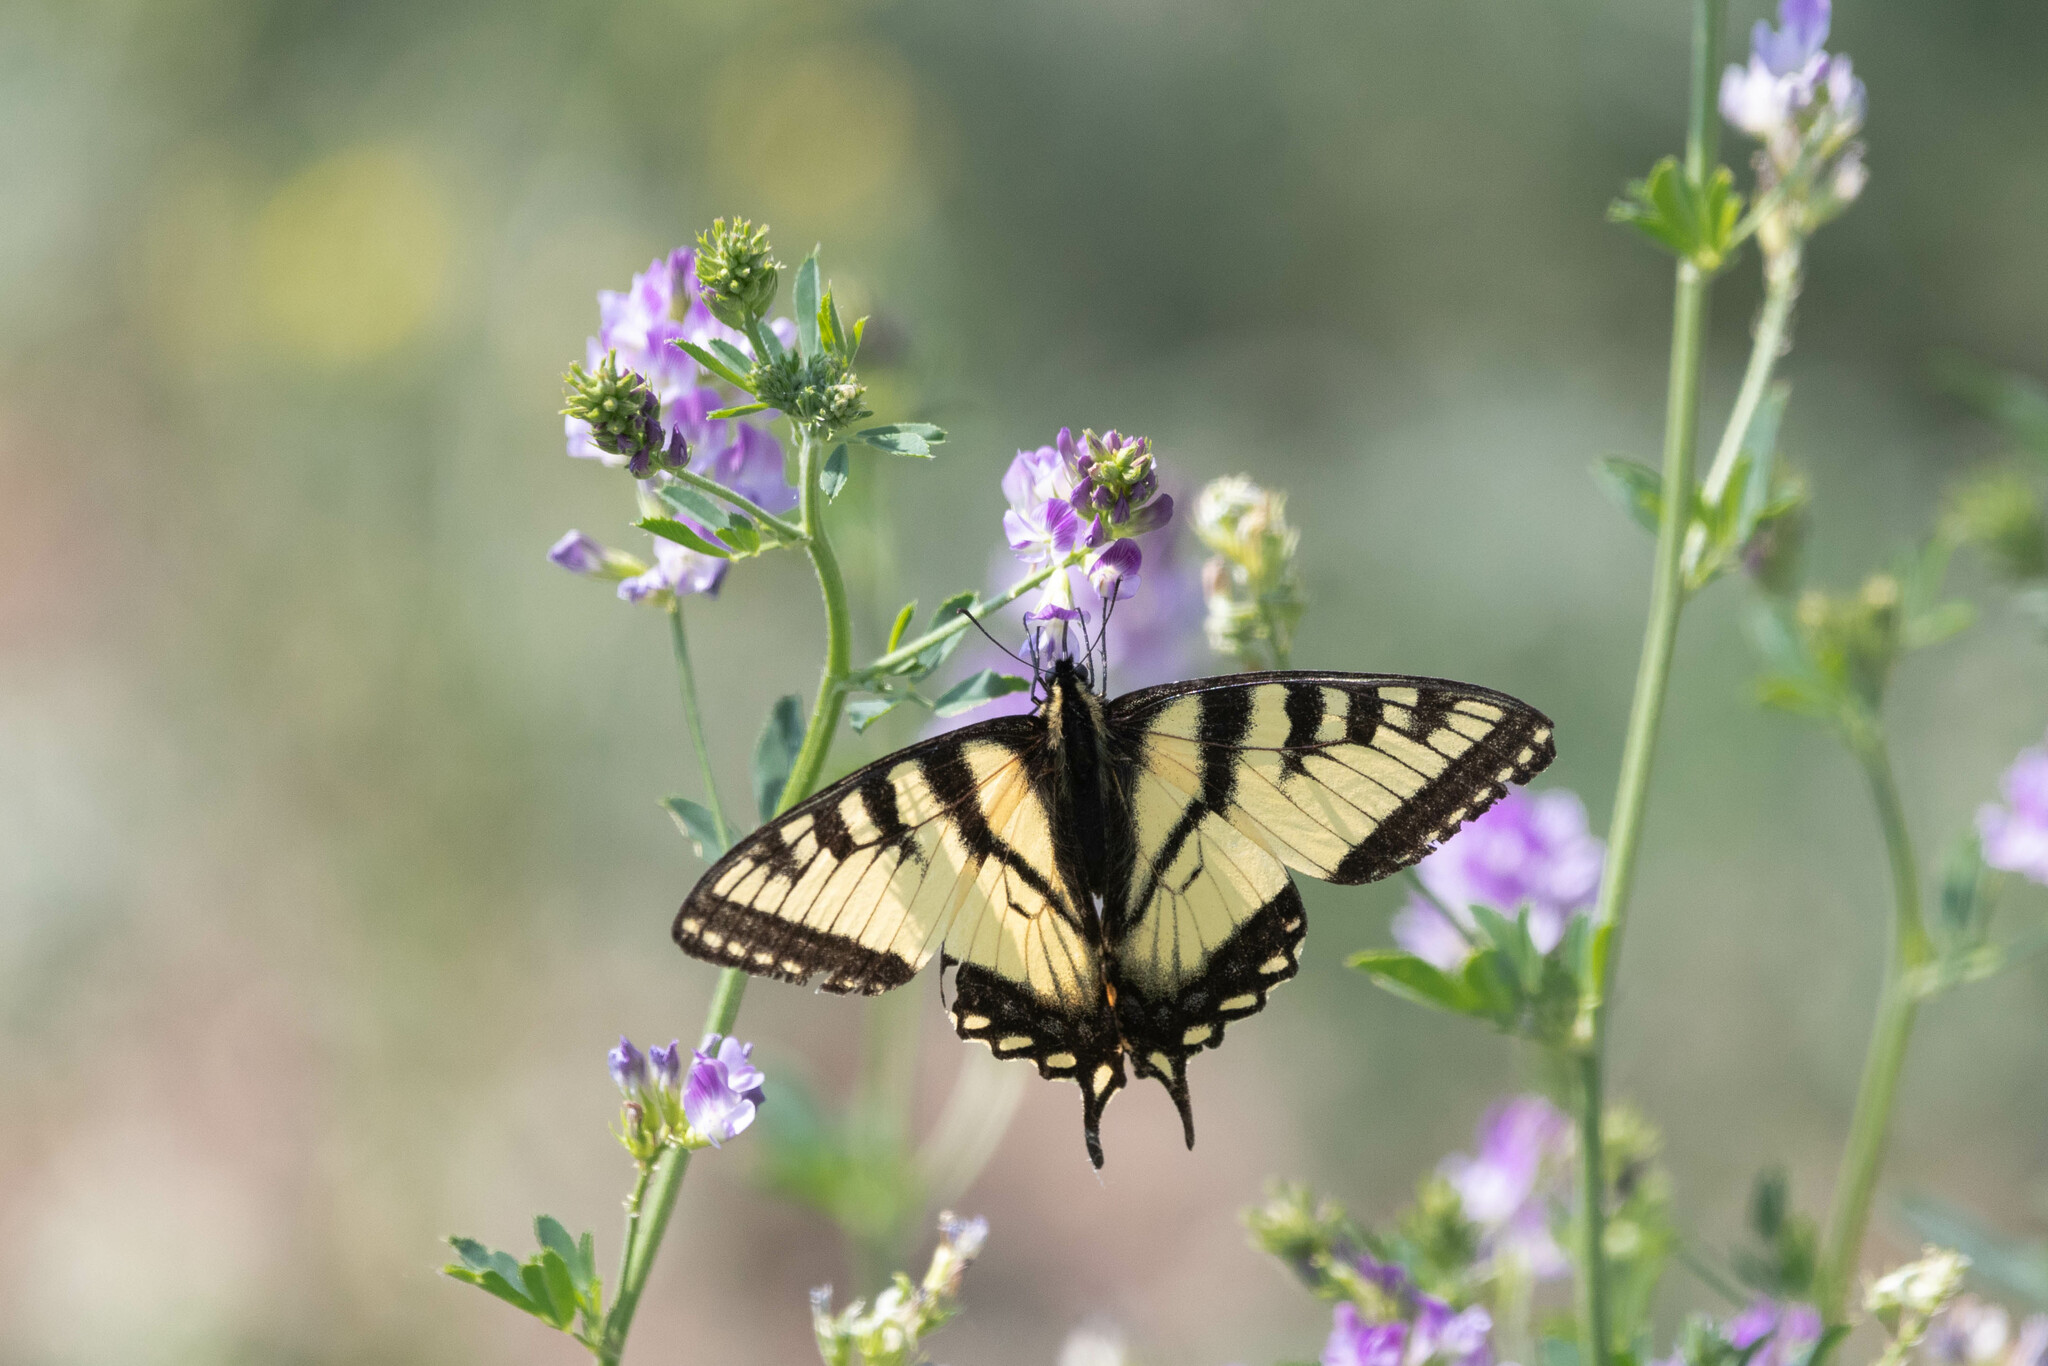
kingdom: Animalia
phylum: Arthropoda
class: Insecta
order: Lepidoptera
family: Papilionidae
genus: Papilio
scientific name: Papilio canadensis
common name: Canadian tiger swallowtail
